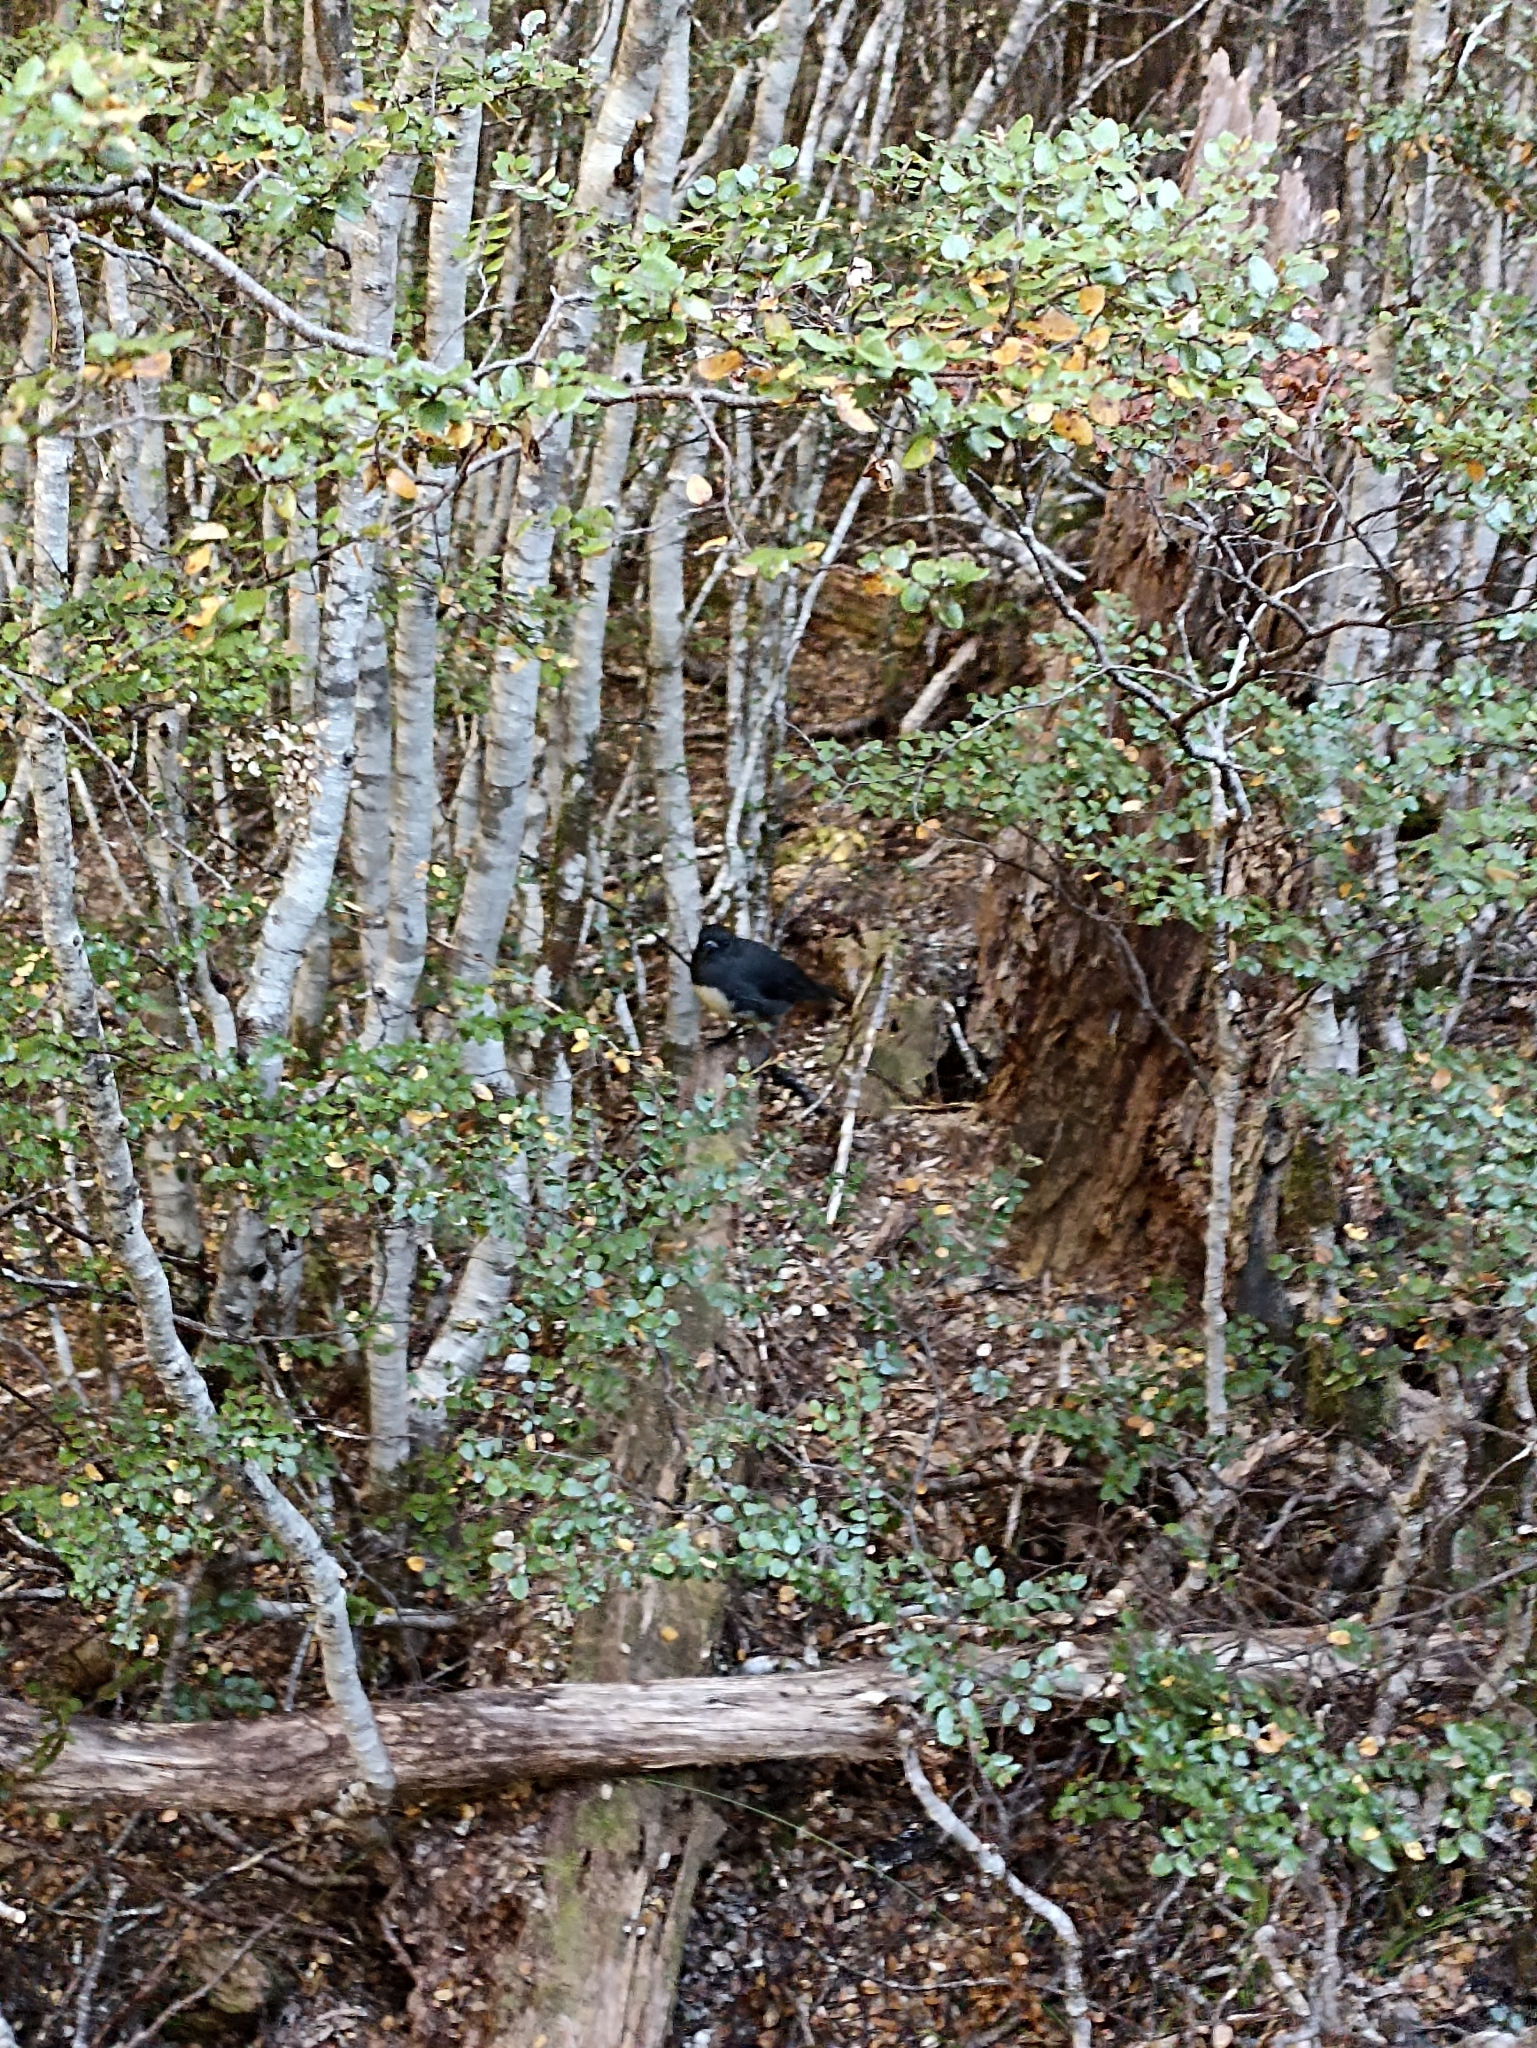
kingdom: Animalia
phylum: Chordata
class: Aves
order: Passeriformes
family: Petroicidae
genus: Petroica
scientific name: Petroica australis
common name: New zealand robin
